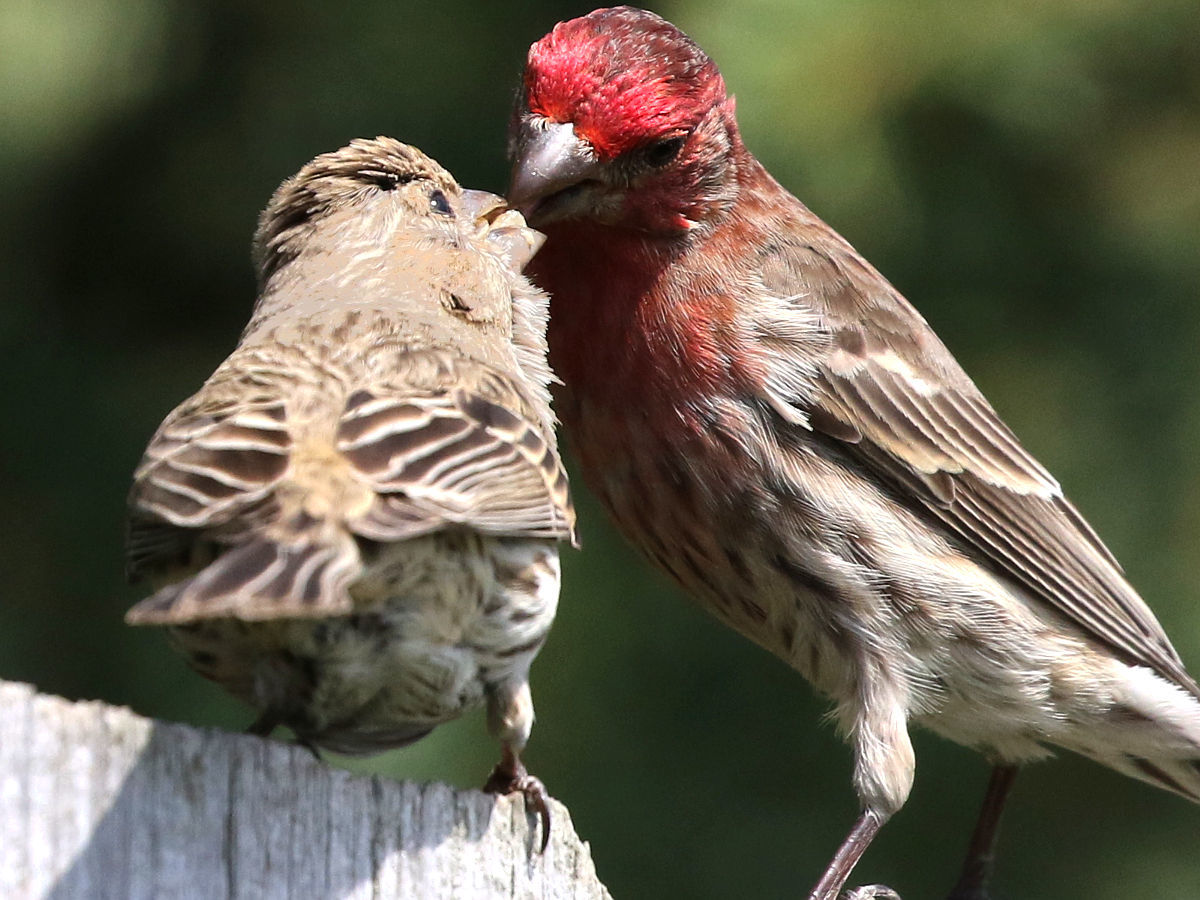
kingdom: Animalia
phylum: Chordata
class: Aves
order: Passeriformes
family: Fringillidae
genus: Haemorhous
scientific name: Haemorhous mexicanus
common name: House finch
